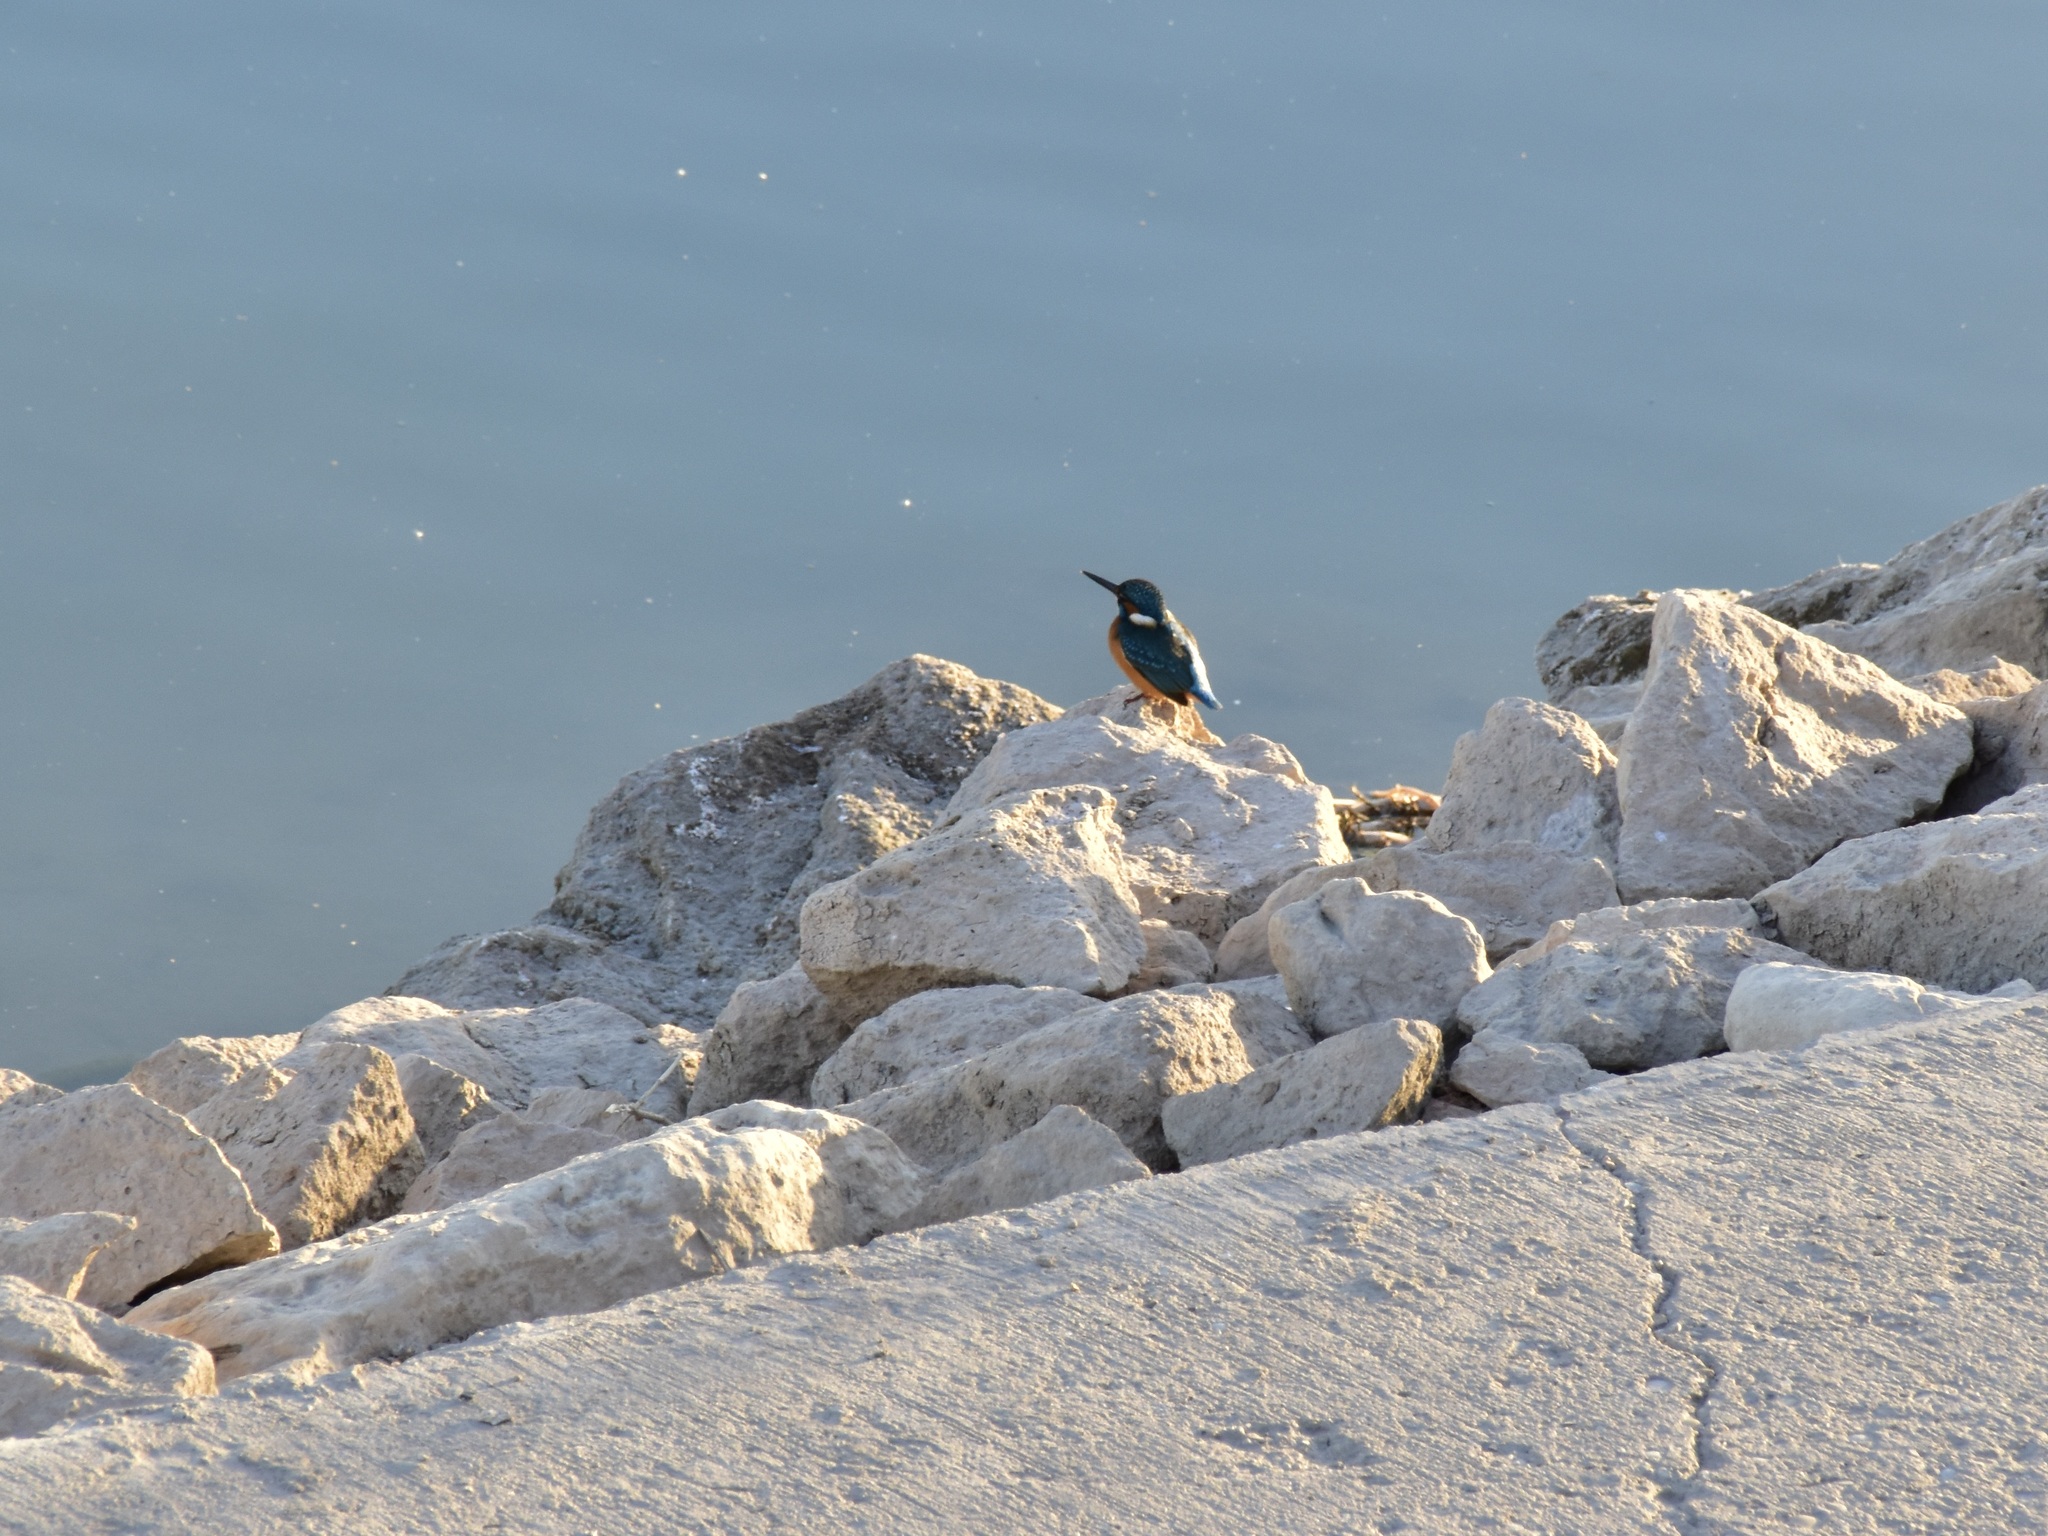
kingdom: Animalia
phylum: Chordata
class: Aves
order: Coraciiformes
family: Alcedinidae
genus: Alcedo
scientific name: Alcedo atthis
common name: Common kingfisher
